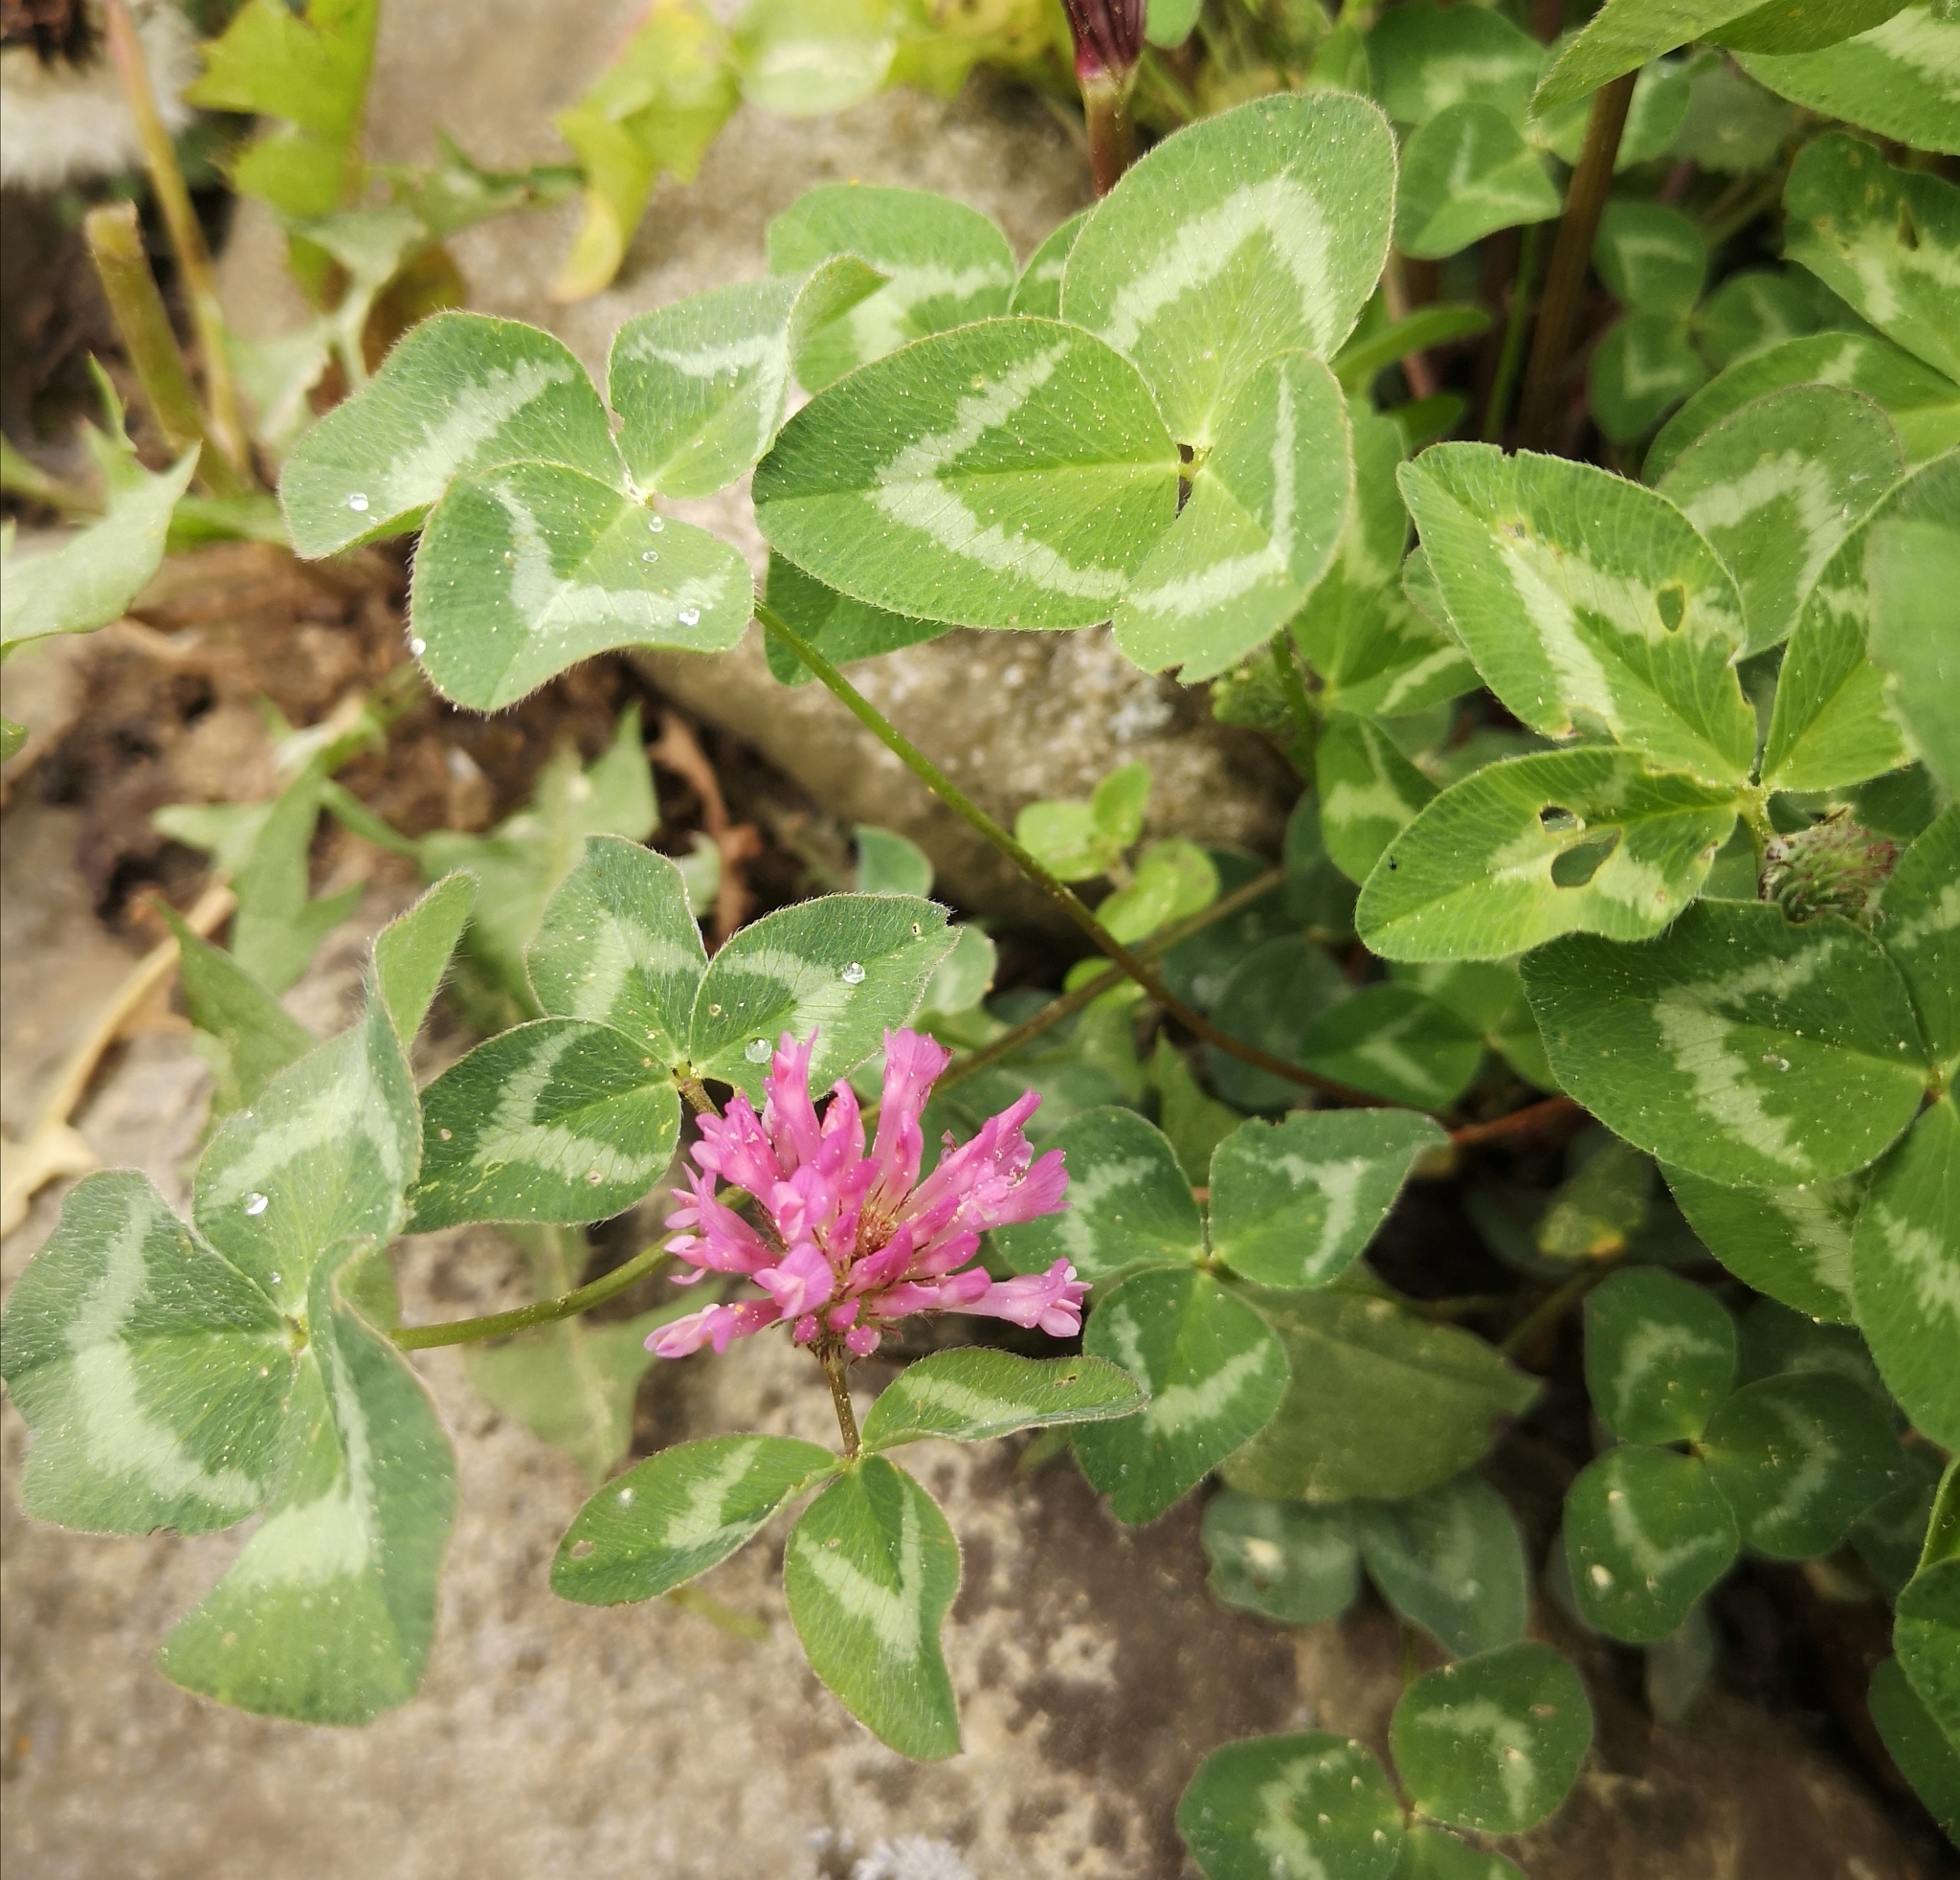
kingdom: Plantae
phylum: Tracheophyta
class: Magnoliopsida
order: Fabales
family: Fabaceae
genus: Trifolium
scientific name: Trifolium pratense
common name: Red clover
